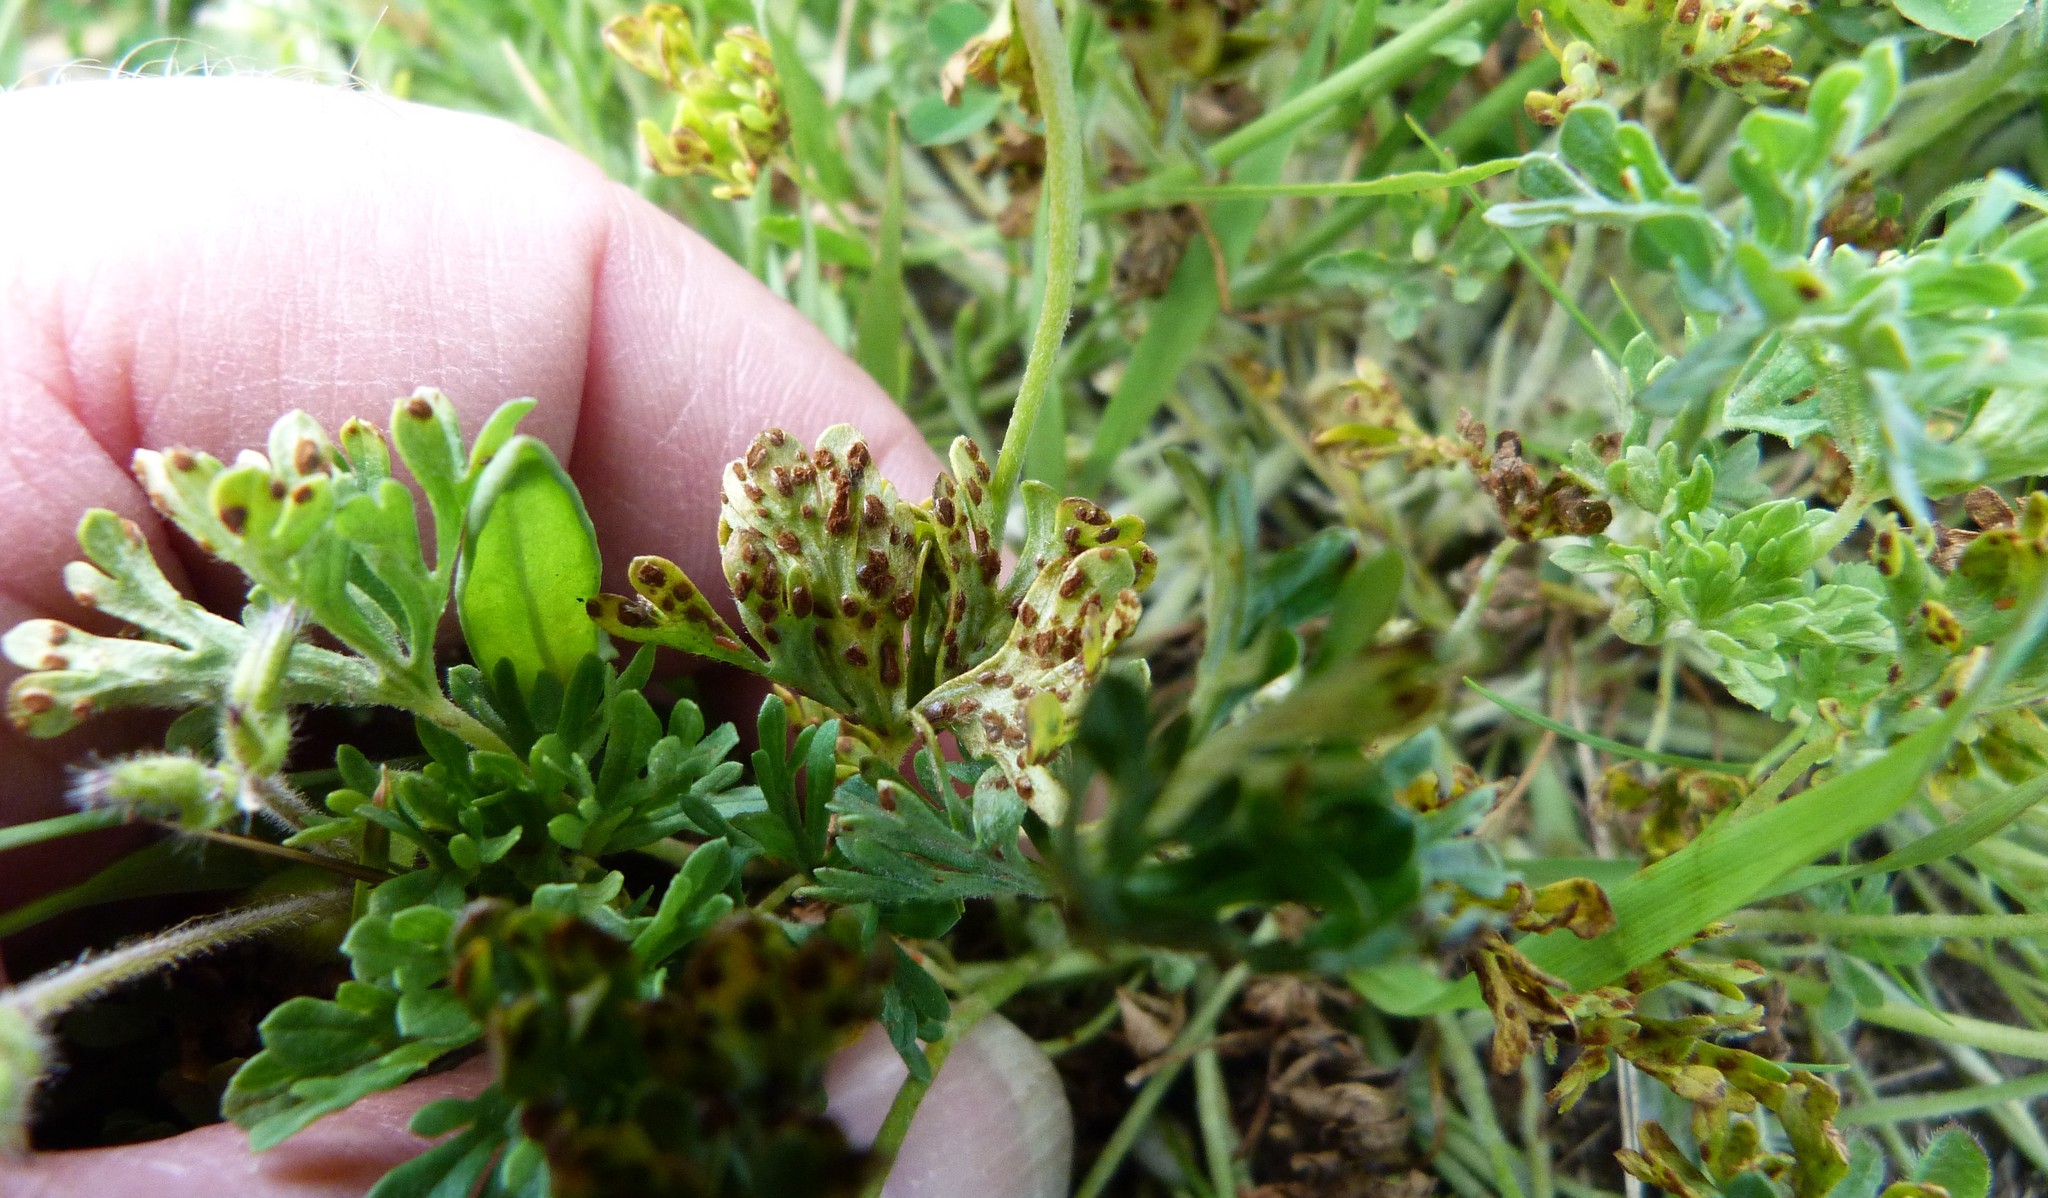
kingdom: Fungi
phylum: Basidiomycota
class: Pucciniomycetes
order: Pucciniales
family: Pucciniaceae
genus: Puccinia
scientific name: Puccinia geranii-pilosi
